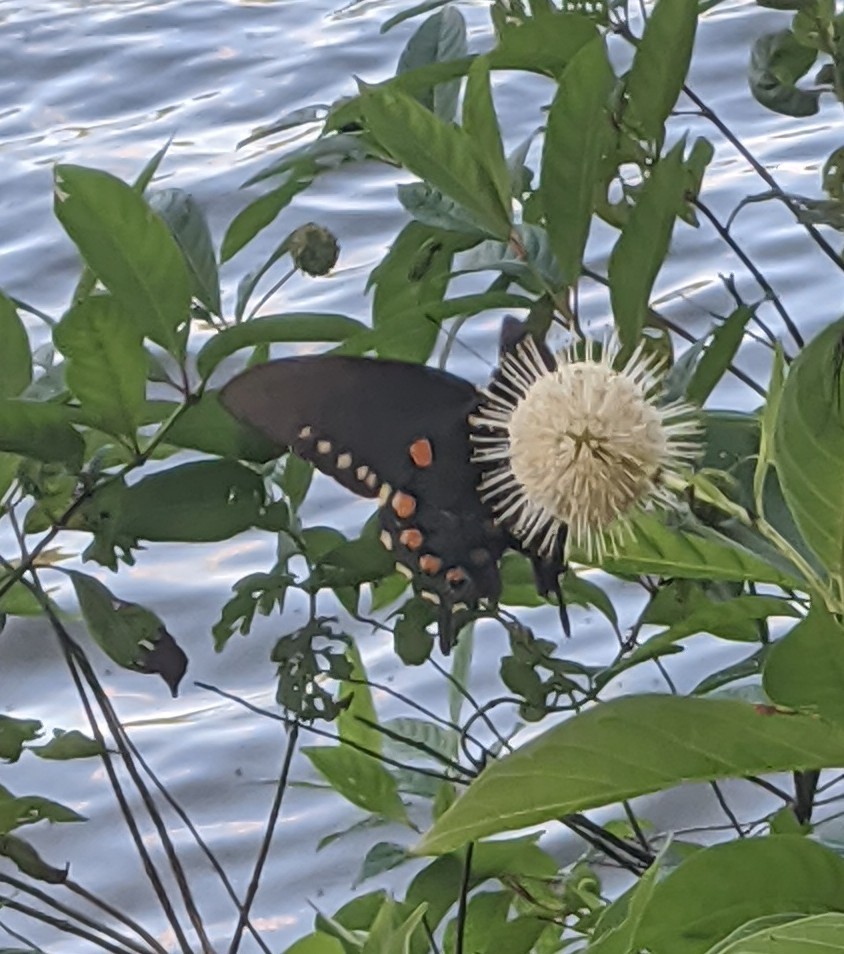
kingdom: Animalia
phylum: Arthropoda
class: Insecta
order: Lepidoptera
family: Papilionidae
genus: Battus
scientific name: Battus philenor
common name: Pipevine swallowtail
